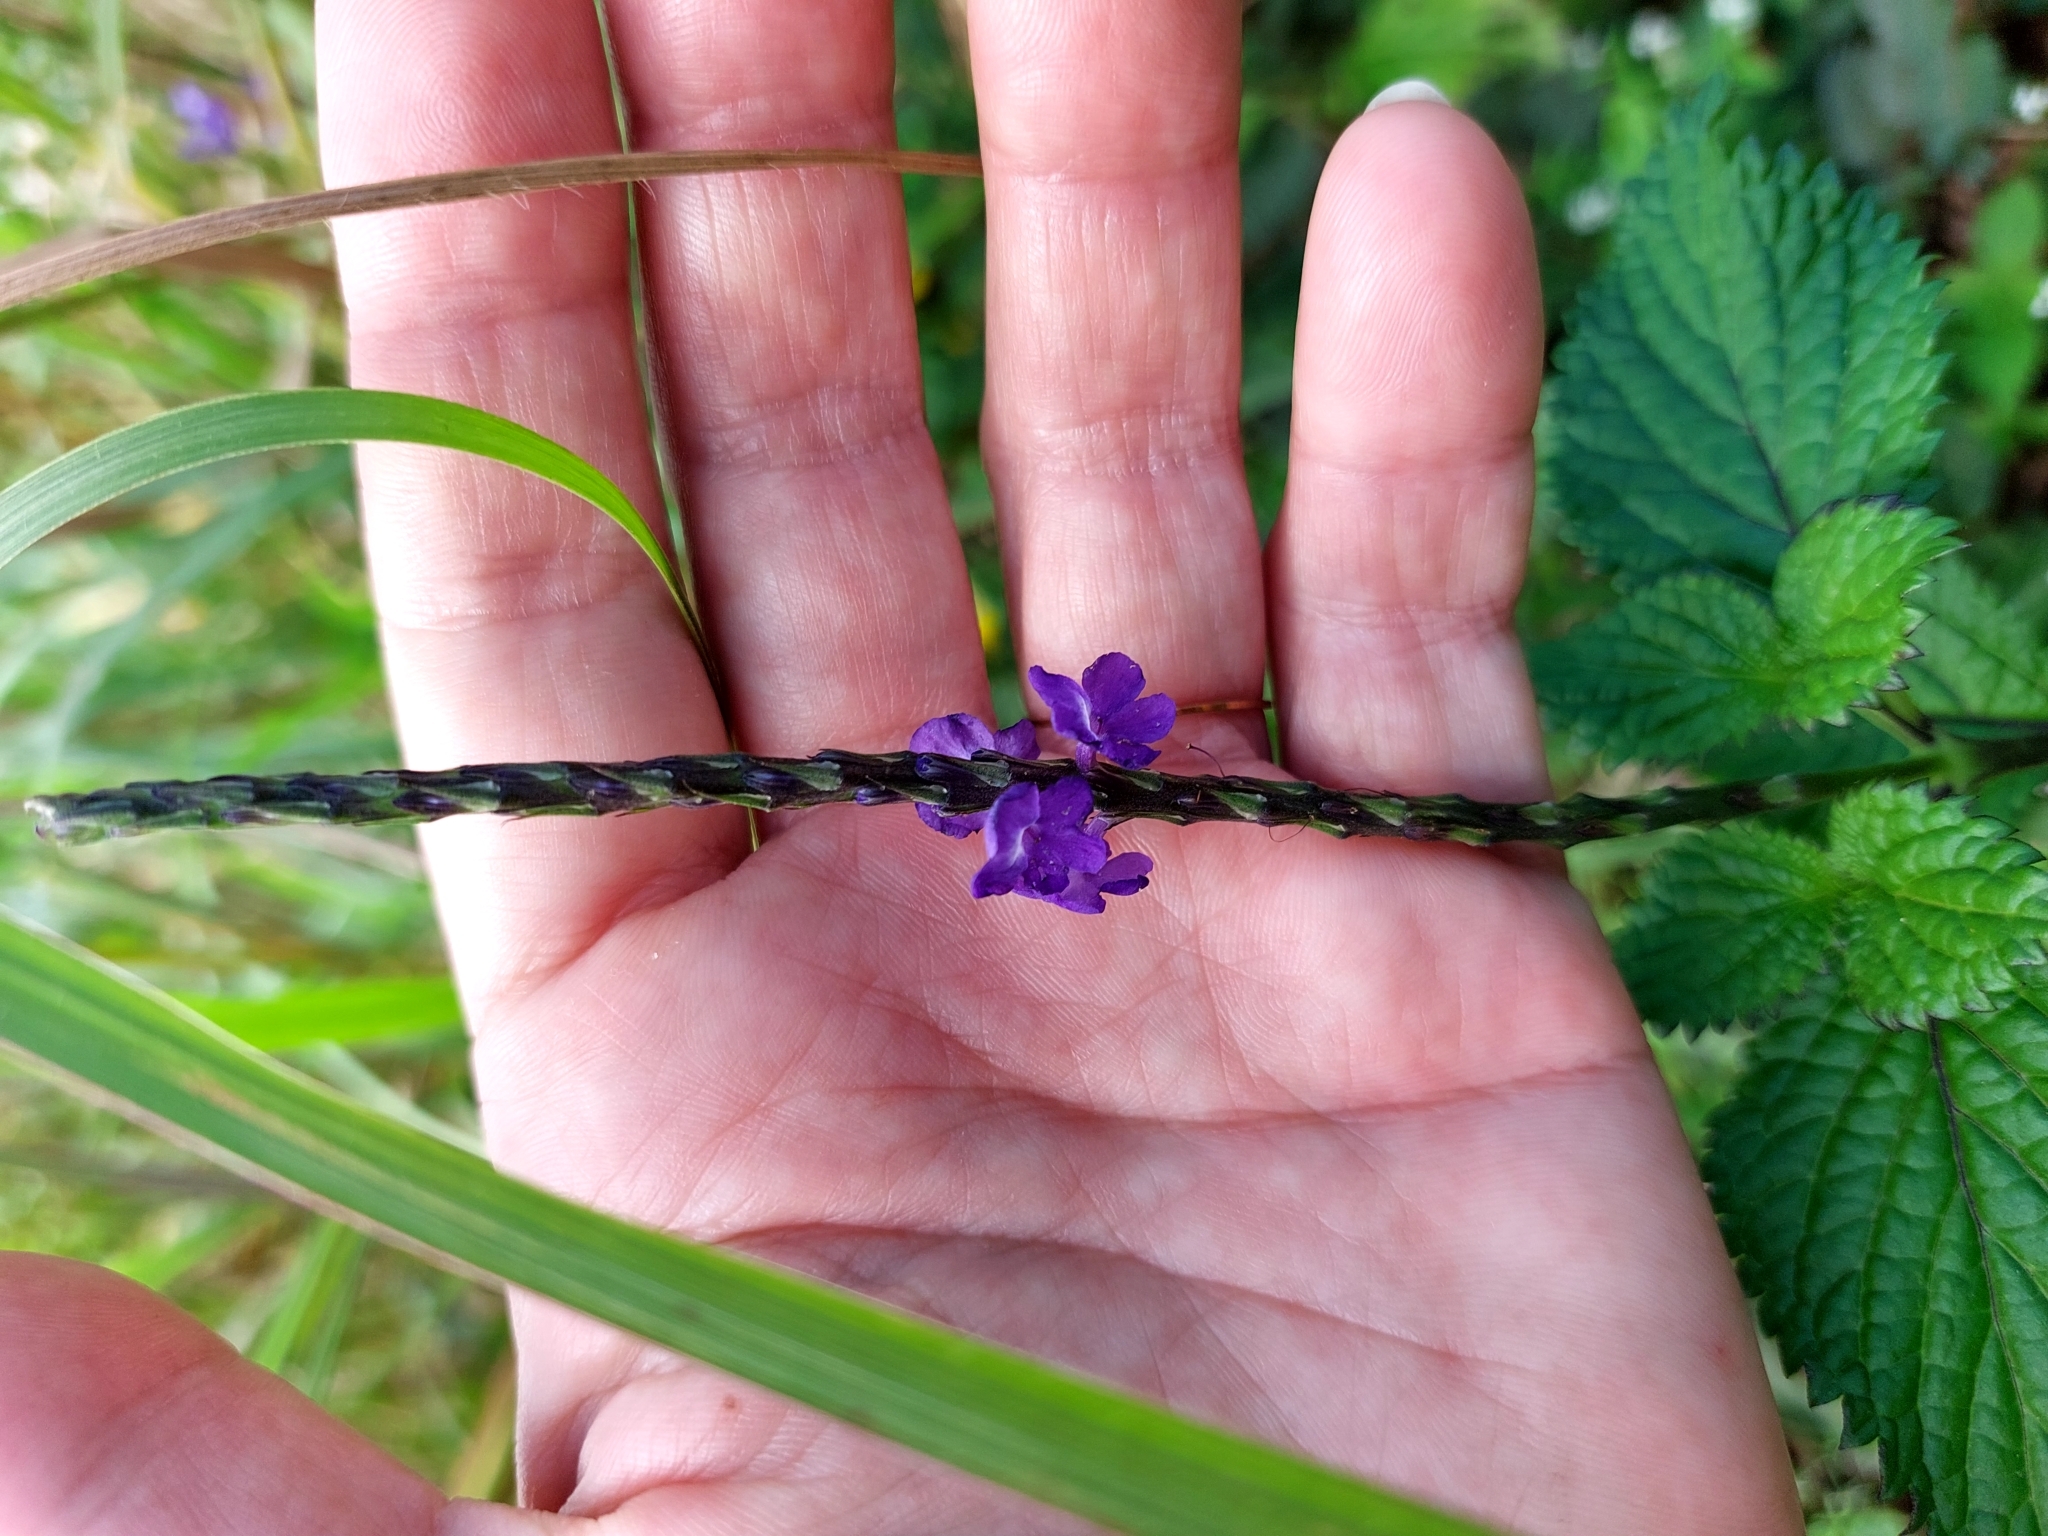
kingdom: Plantae
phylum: Tracheophyta
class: Magnoliopsida
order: Lamiales
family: Verbenaceae
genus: Stachytarpheta
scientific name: Stachytarpheta cayennensis
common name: Cayenne porterweed
